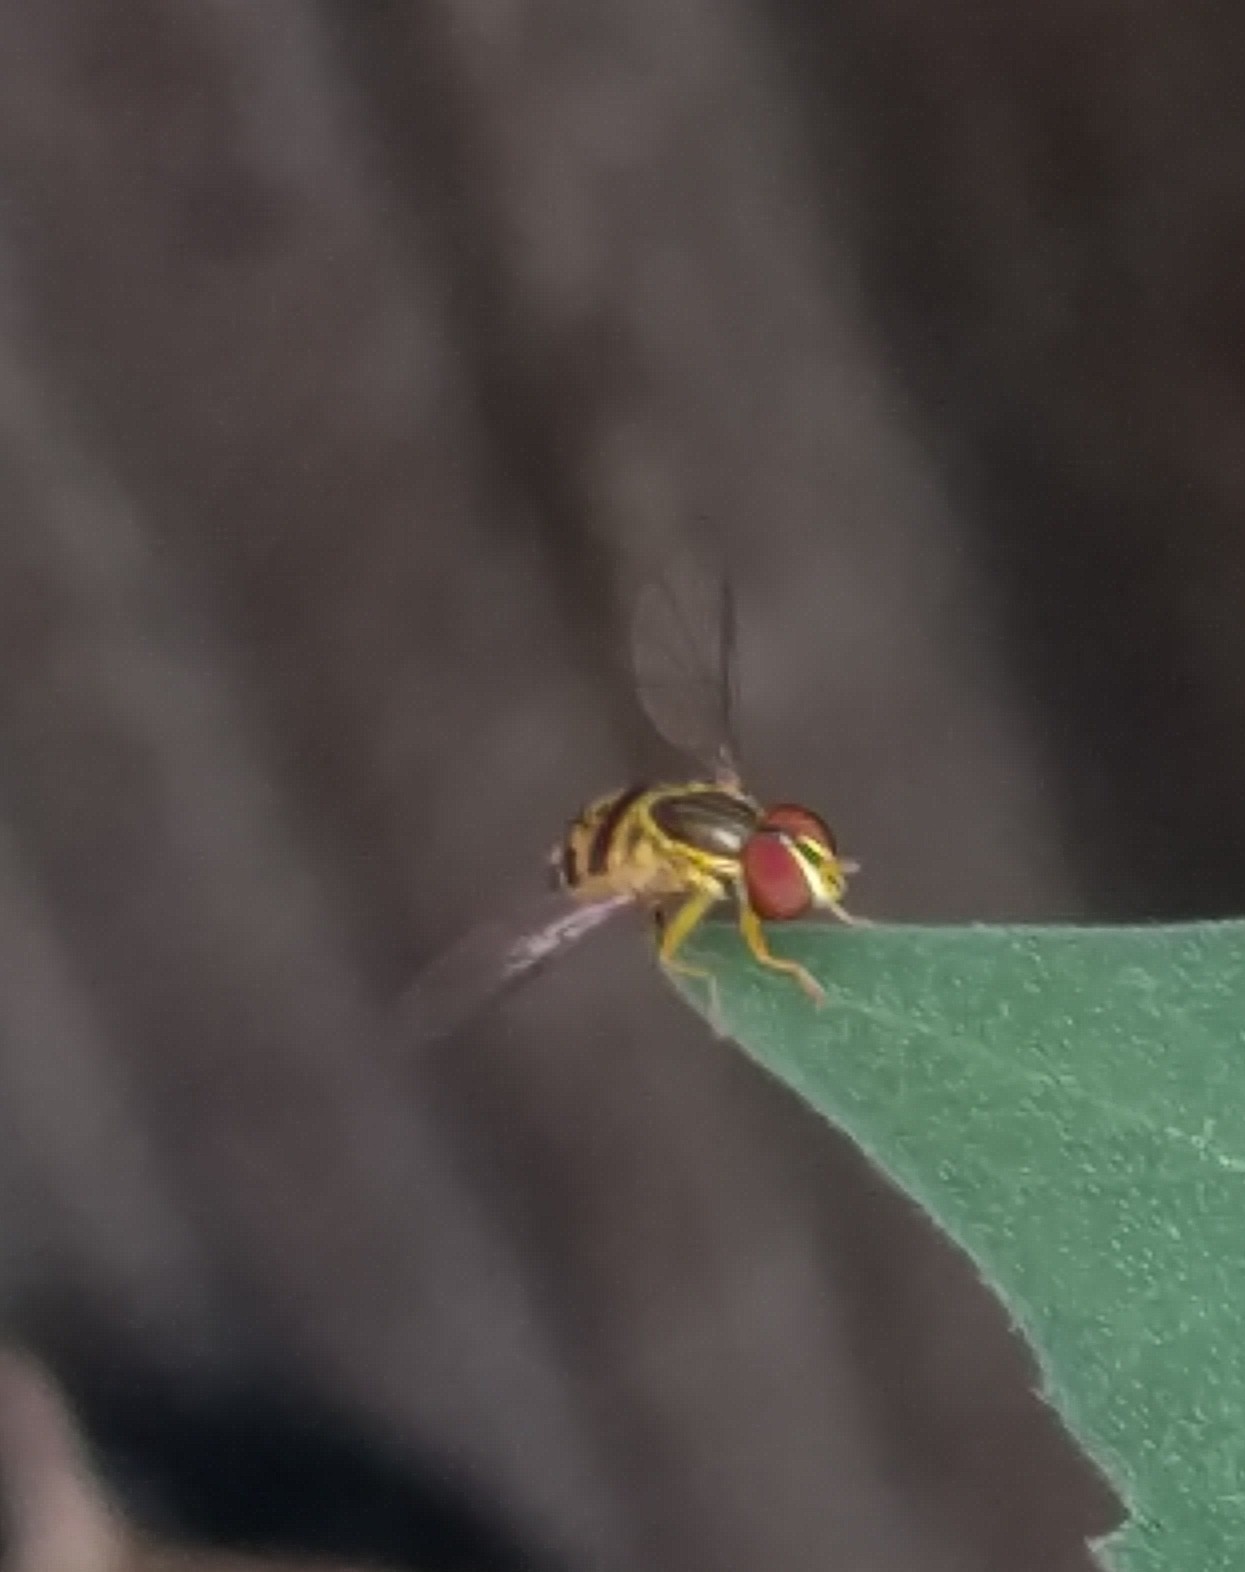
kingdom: Animalia
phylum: Arthropoda
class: Insecta
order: Diptera
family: Syrphidae
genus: Toxomerus
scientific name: Toxomerus geminatus
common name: Eastern calligrapher
